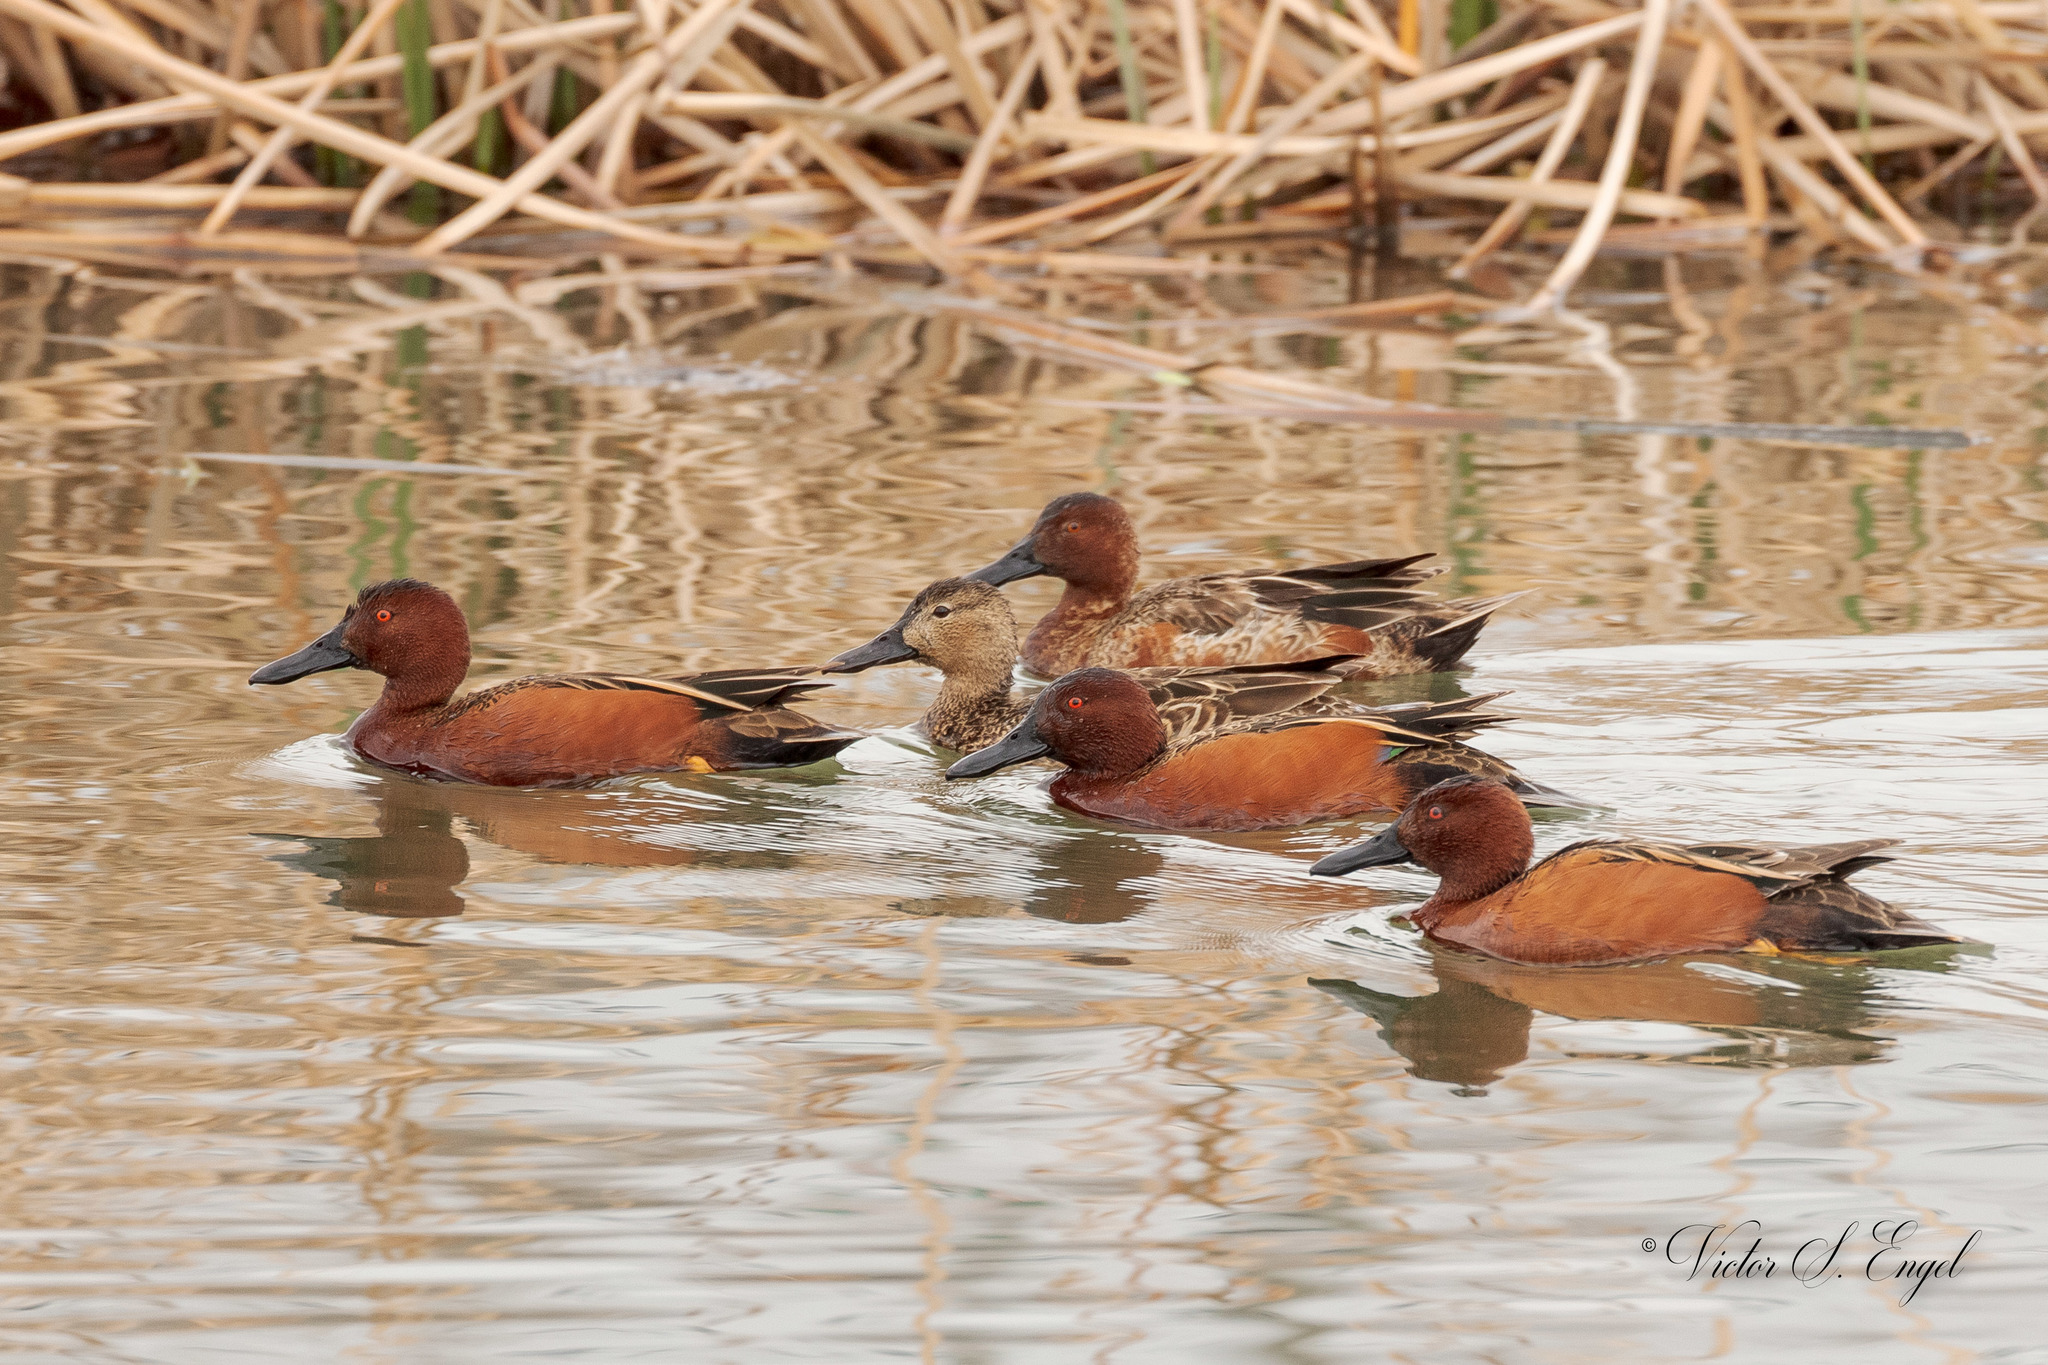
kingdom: Animalia
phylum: Chordata
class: Aves
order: Anseriformes
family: Anatidae
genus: Spatula
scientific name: Spatula cyanoptera
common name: Cinnamon teal
